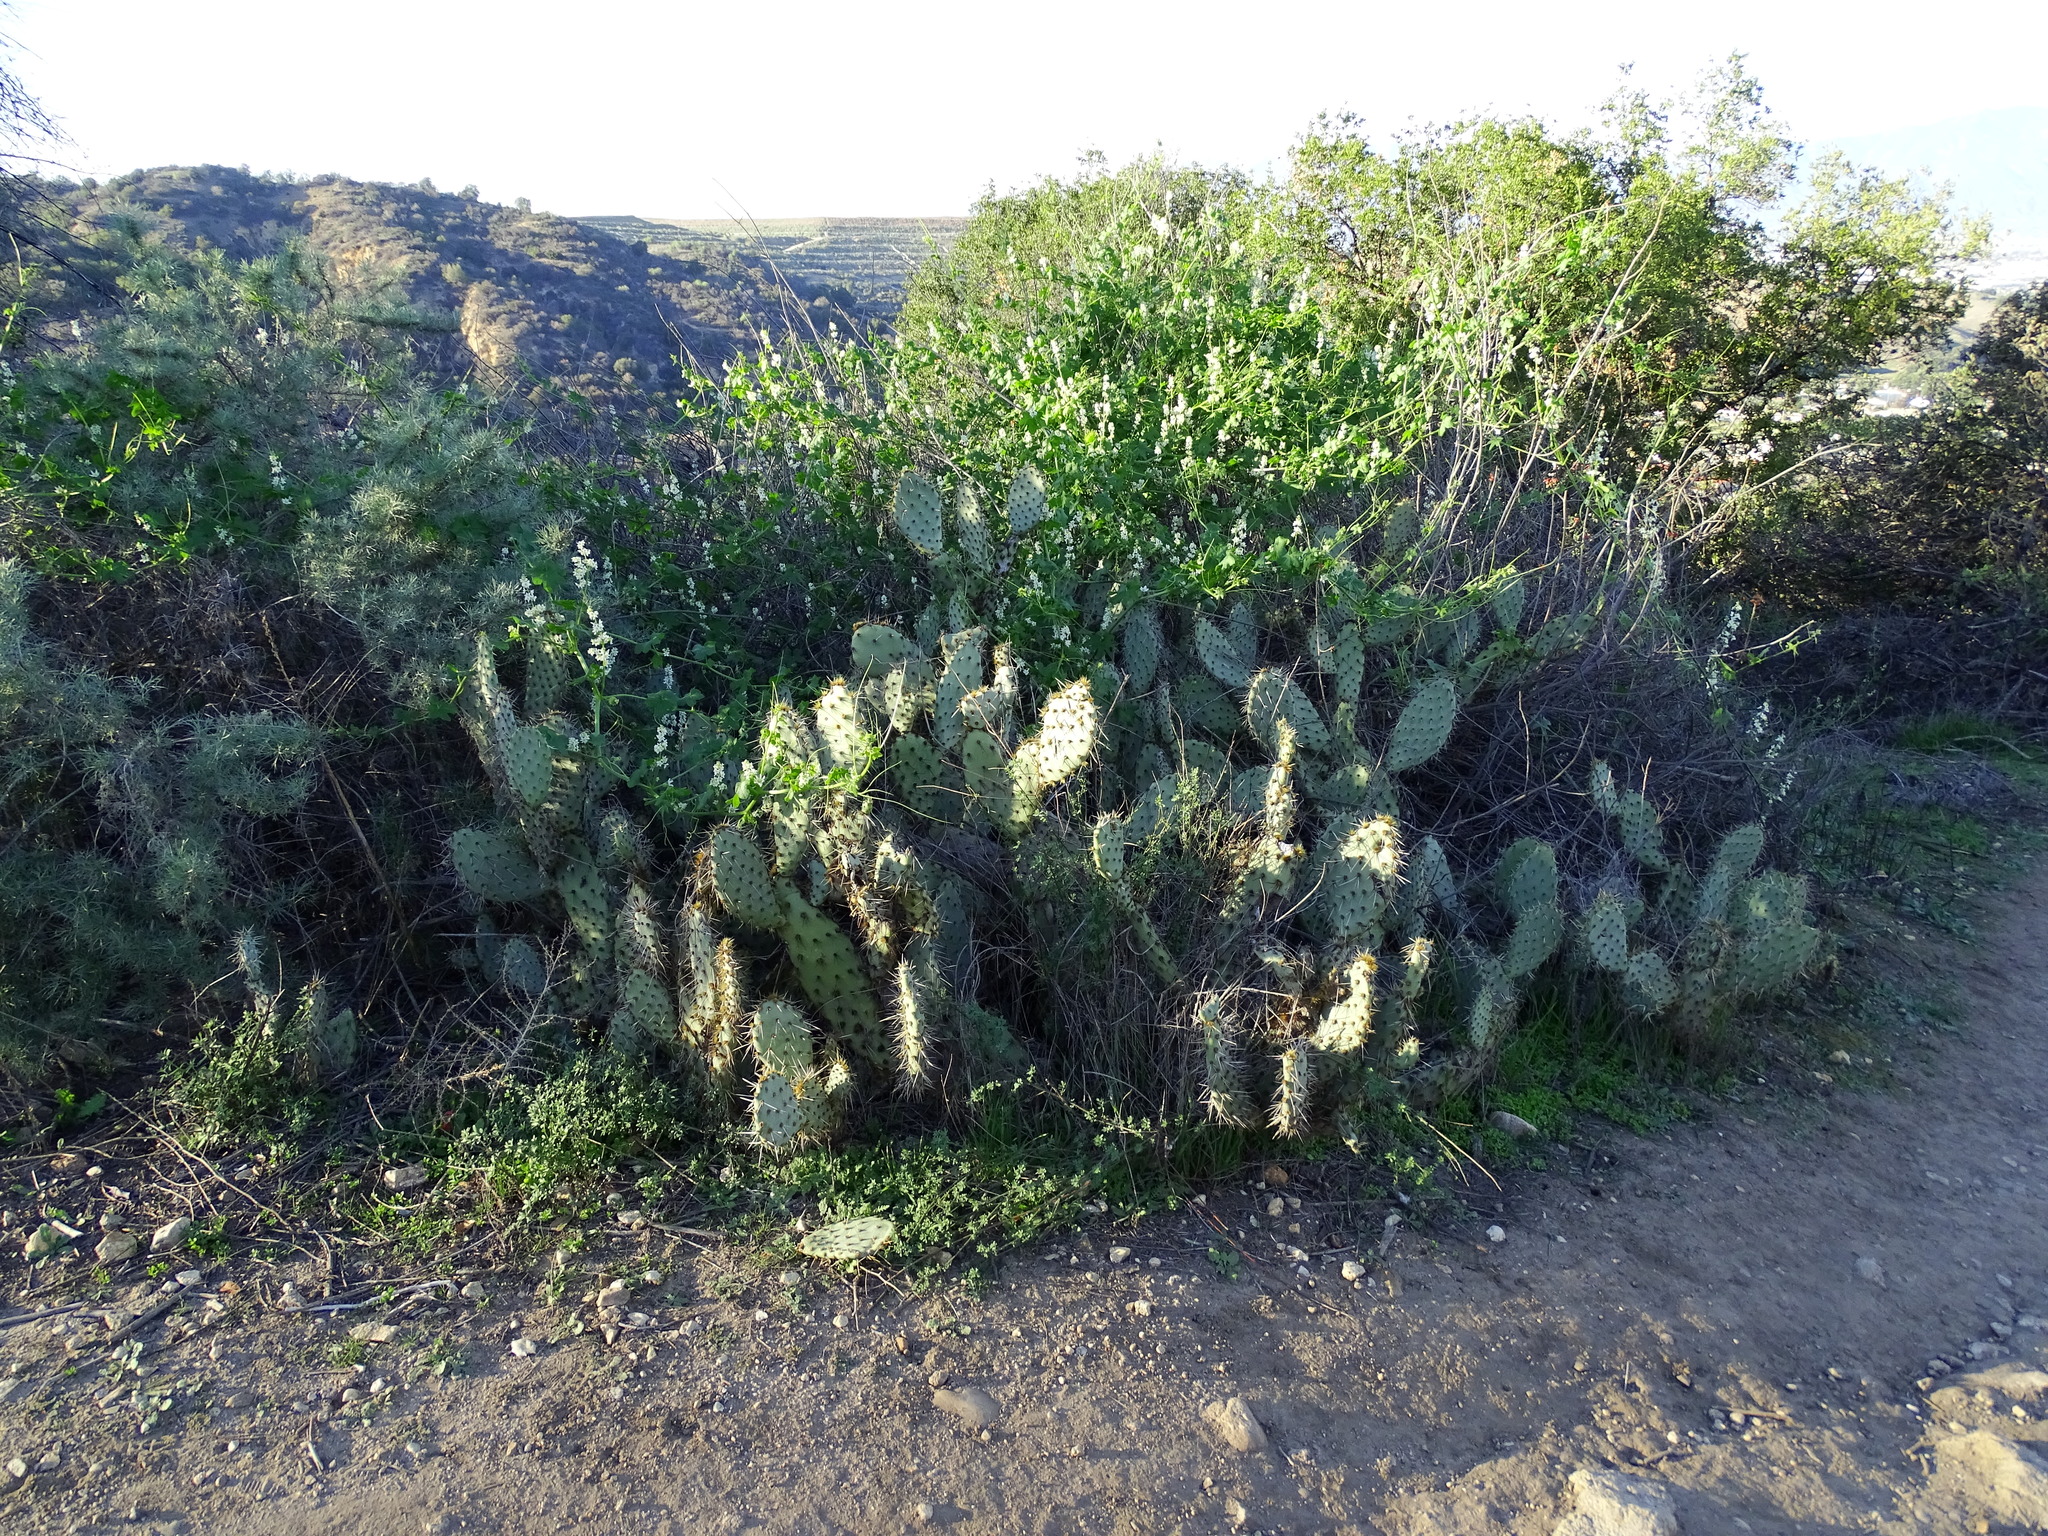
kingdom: Plantae
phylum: Tracheophyta
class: Magnoliopsida
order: Caryophyllales
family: Cactaceae
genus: Opuntia
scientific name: Opuntia littoralis
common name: Coastal prickly-pear
